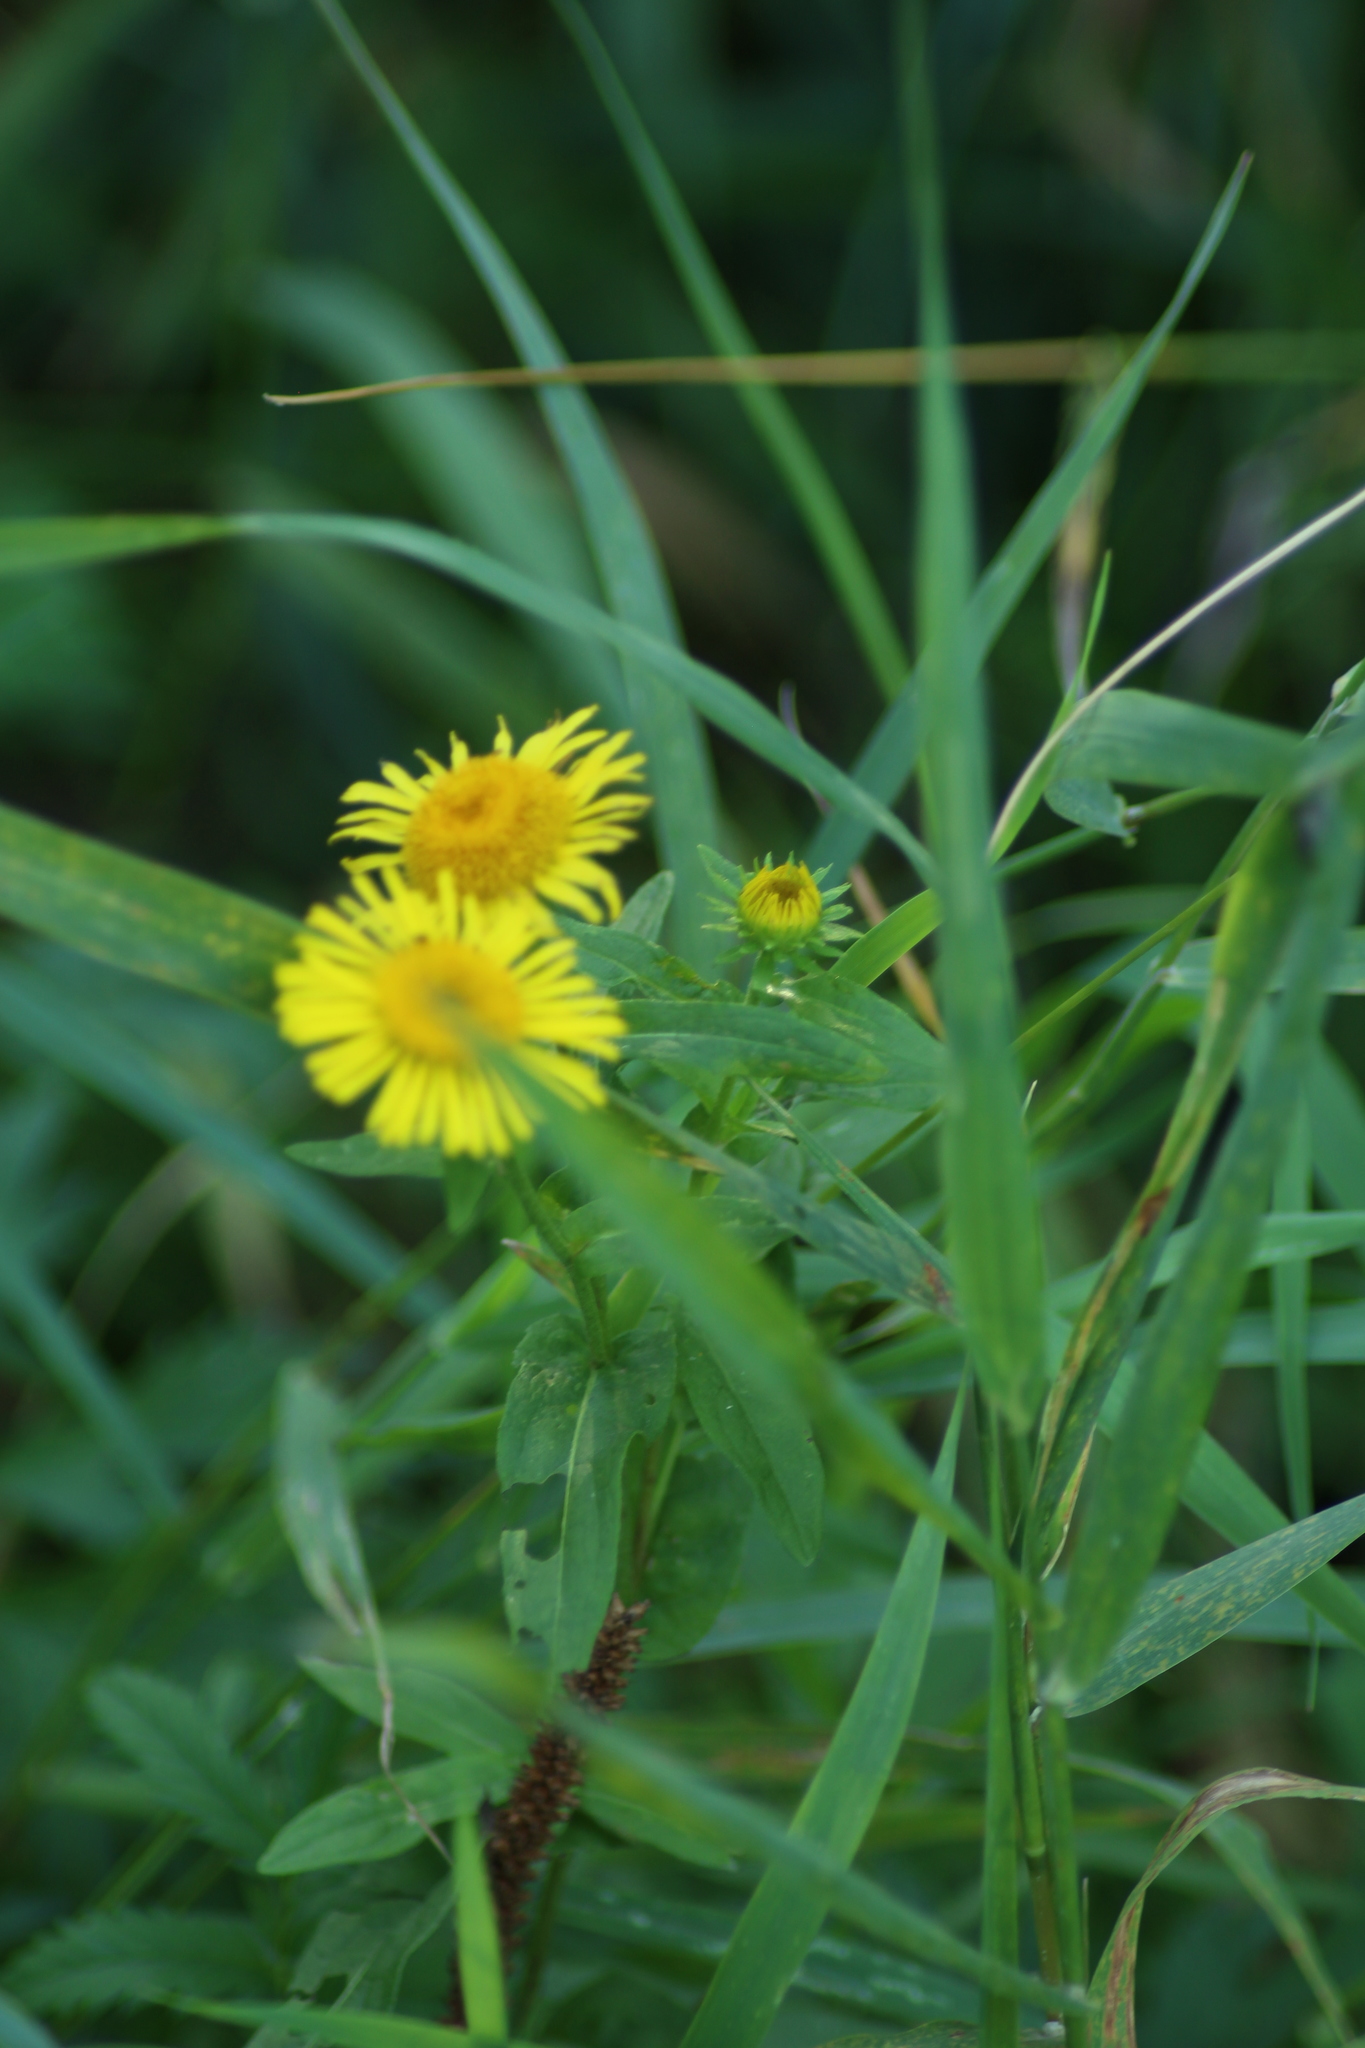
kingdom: Plantae
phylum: Tracheophyta
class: Magnoliopsida
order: Asterales
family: Asteraceae
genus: Pentanema
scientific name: Pentanema britannicum
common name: British elecampane
